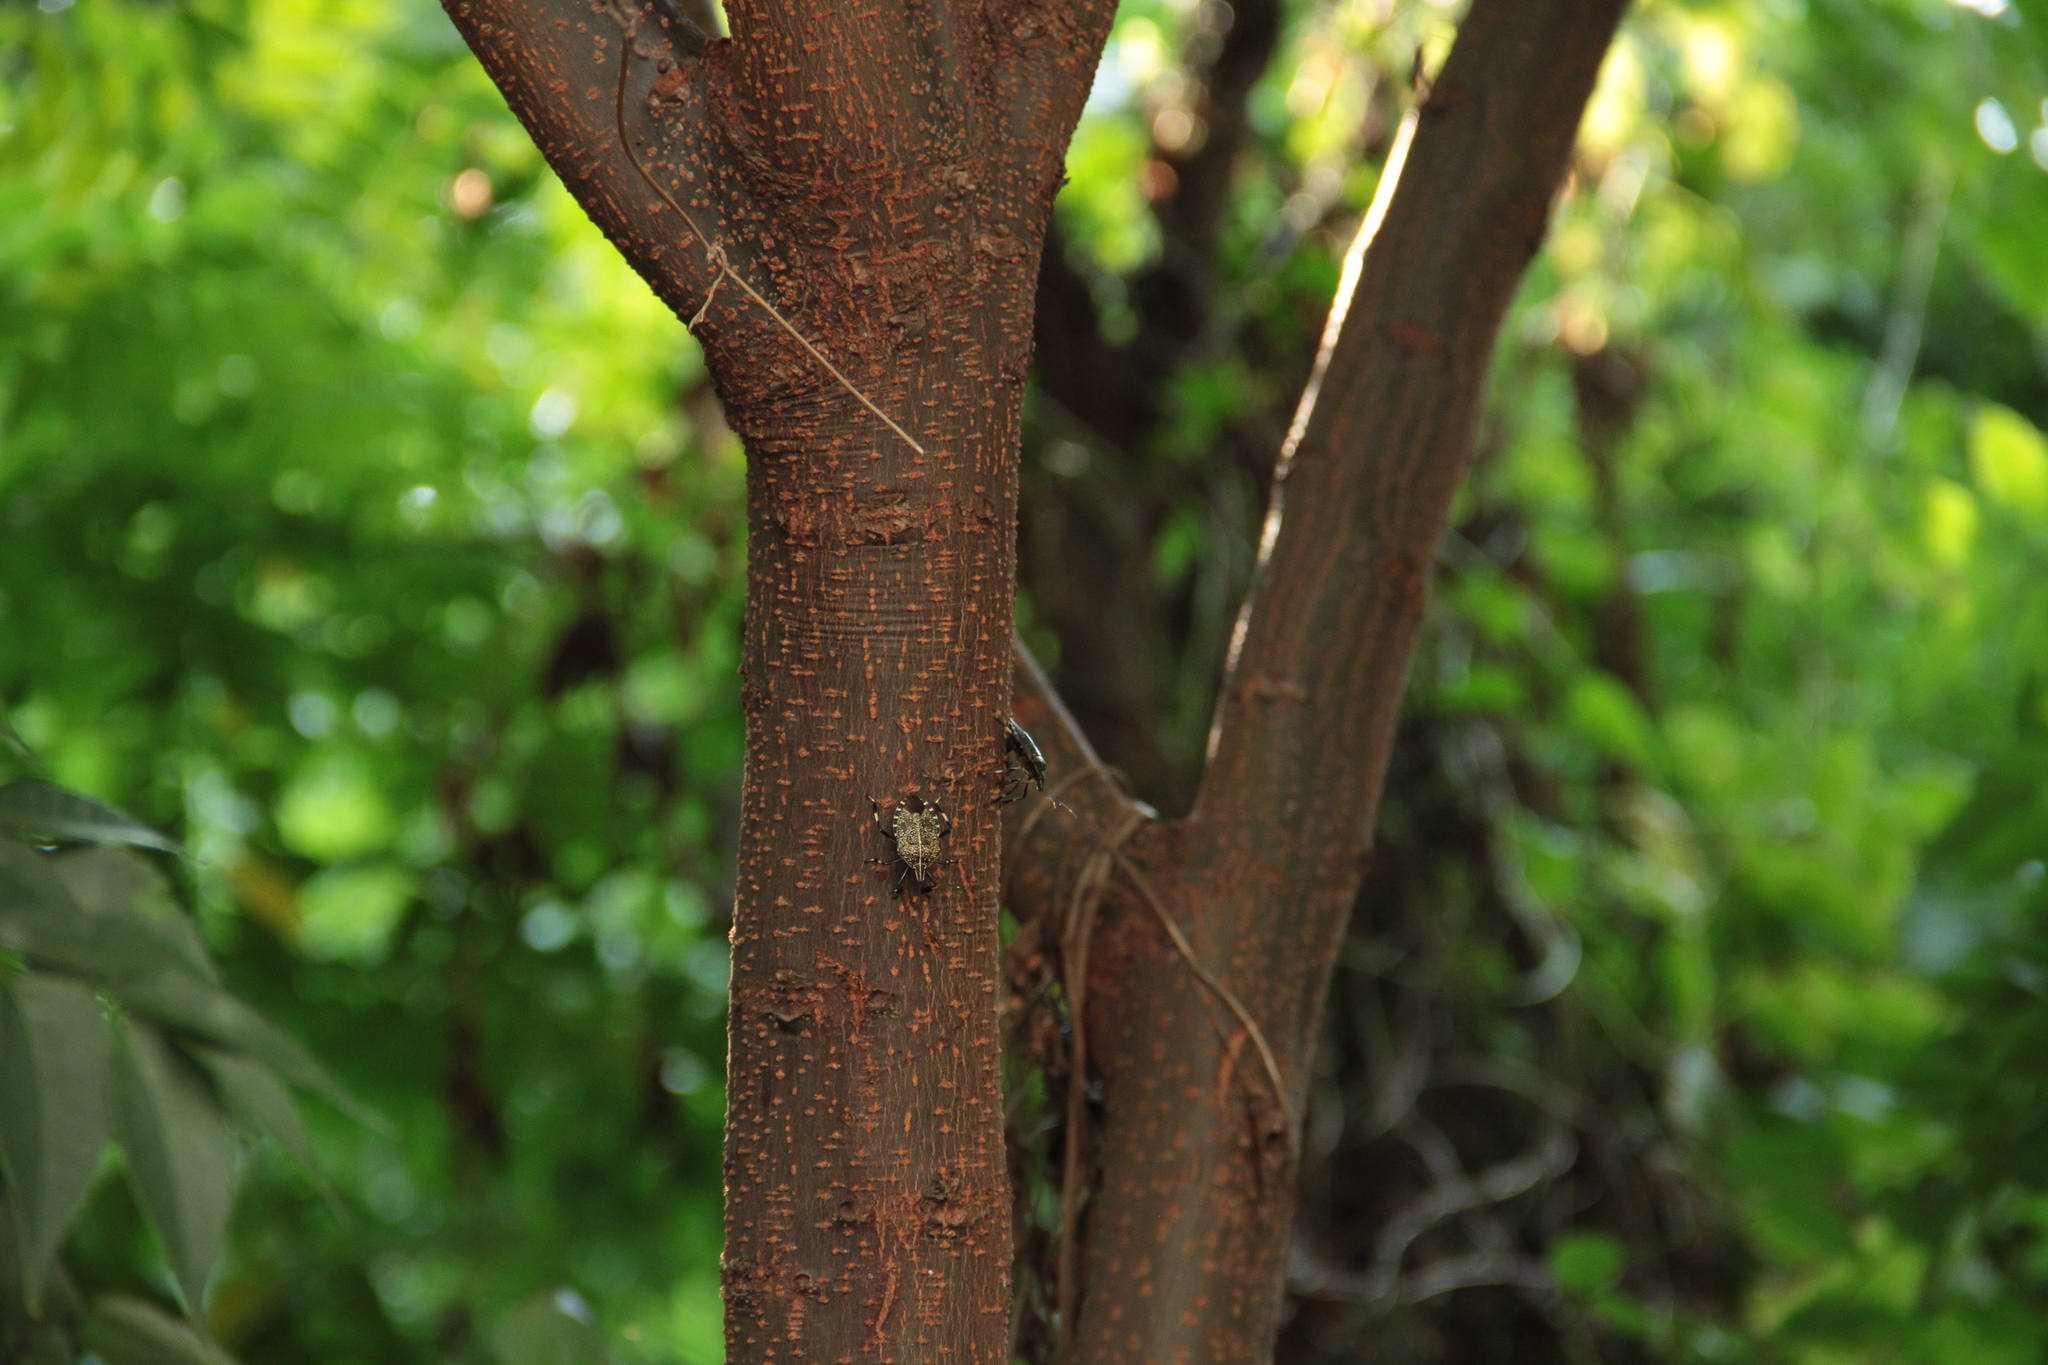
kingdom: Animalia
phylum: Arthropoda
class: Insecta
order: Hemiptera
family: Pentatomidae
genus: Erthesina
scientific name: Erthesina fullo
